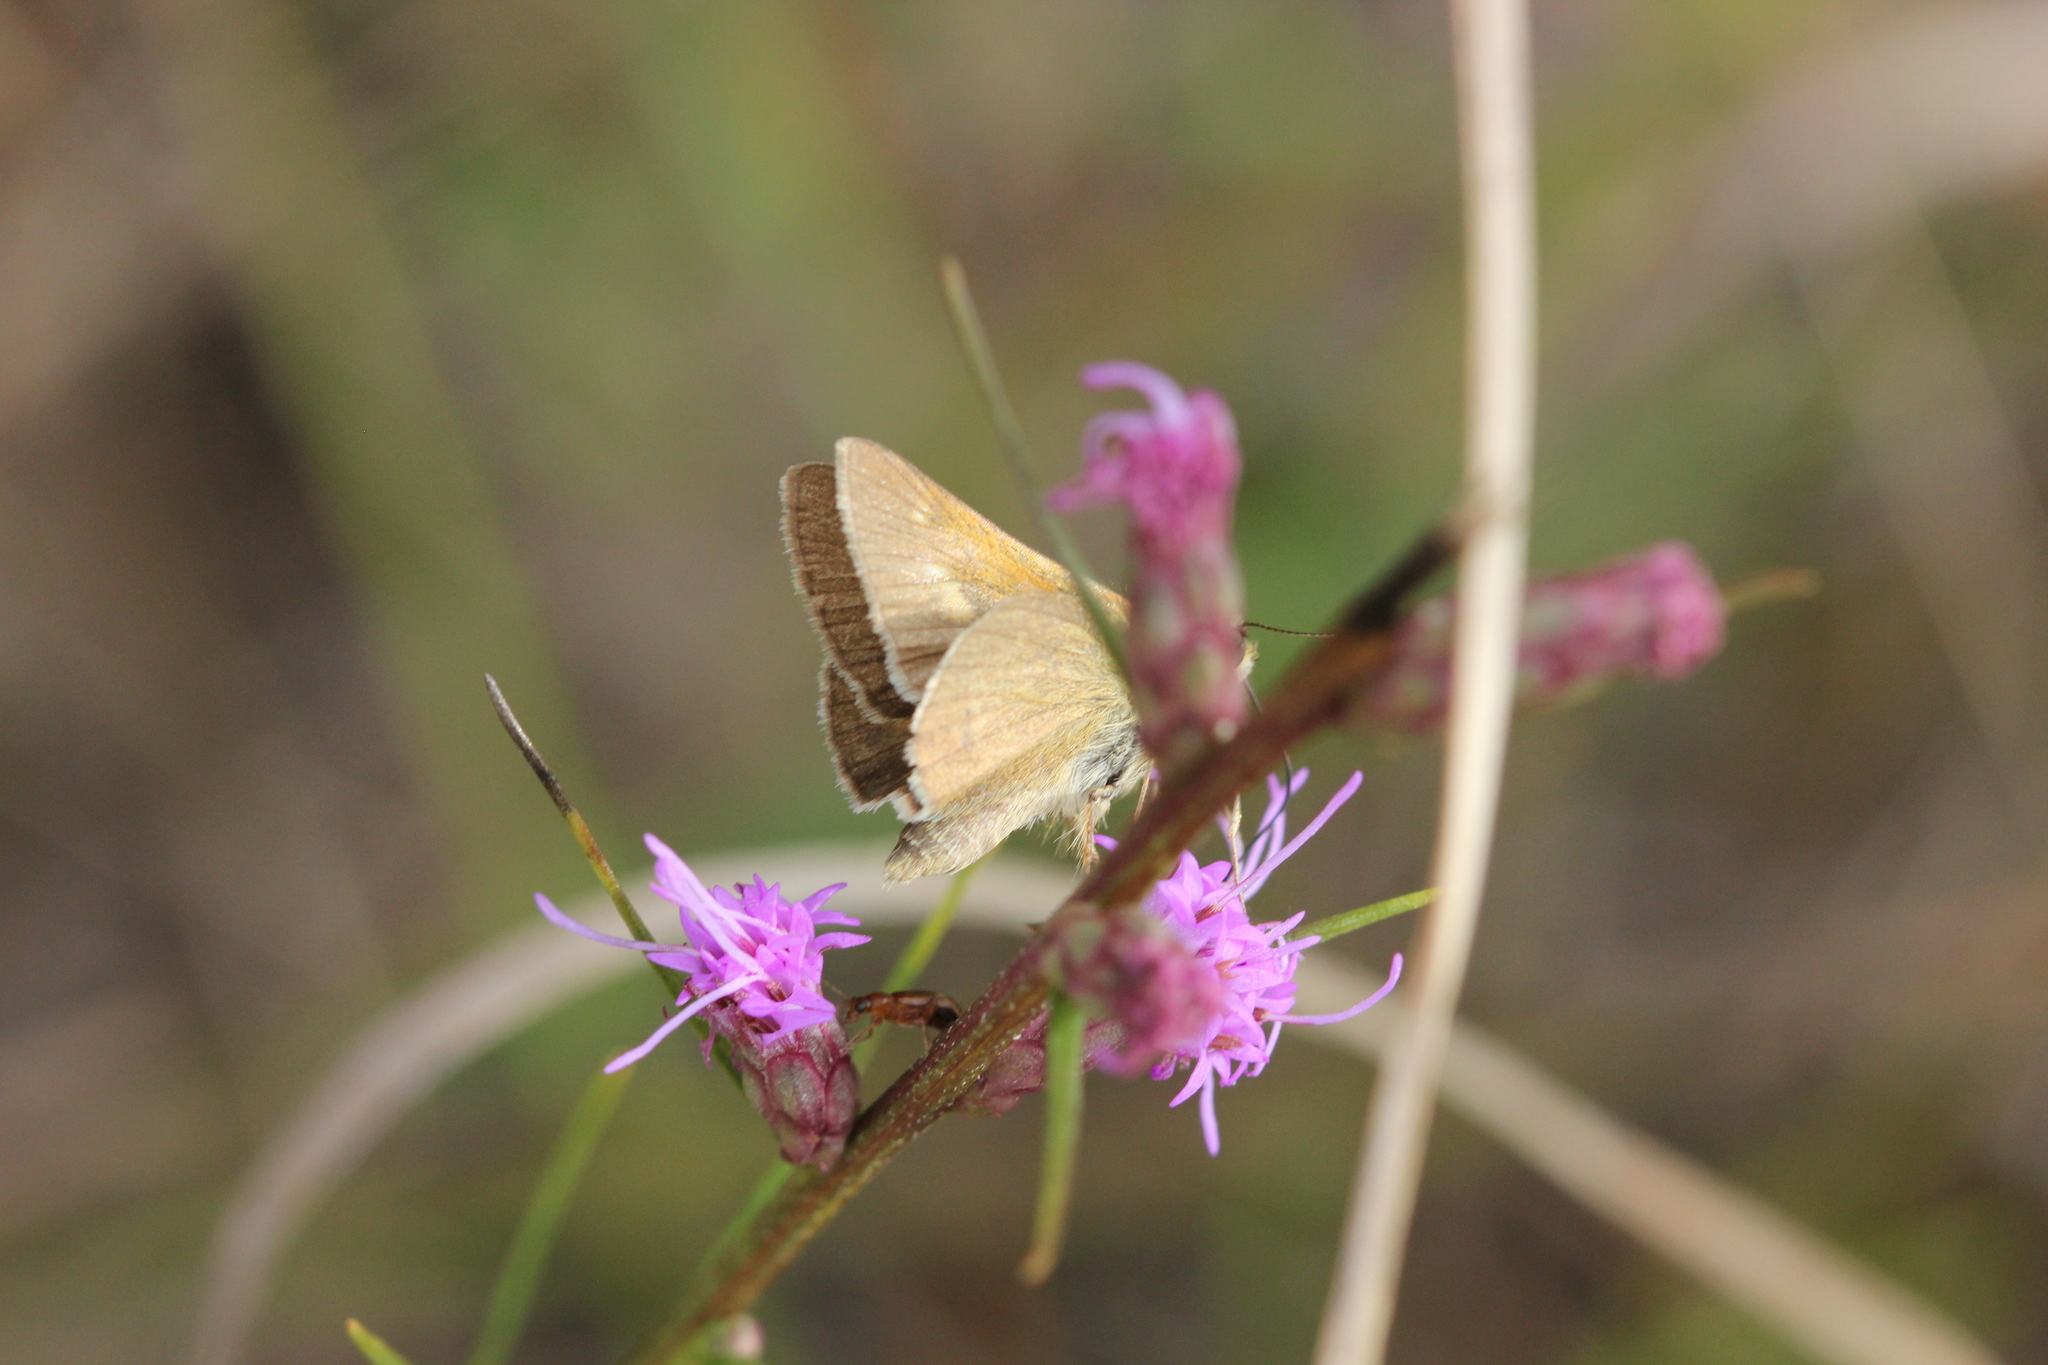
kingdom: Animalia
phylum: Arthropoda
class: Insecta
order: Lepidoptera
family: Hesperiidae
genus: Polites
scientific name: Polites themistocles
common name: Tawny-edged skipper
